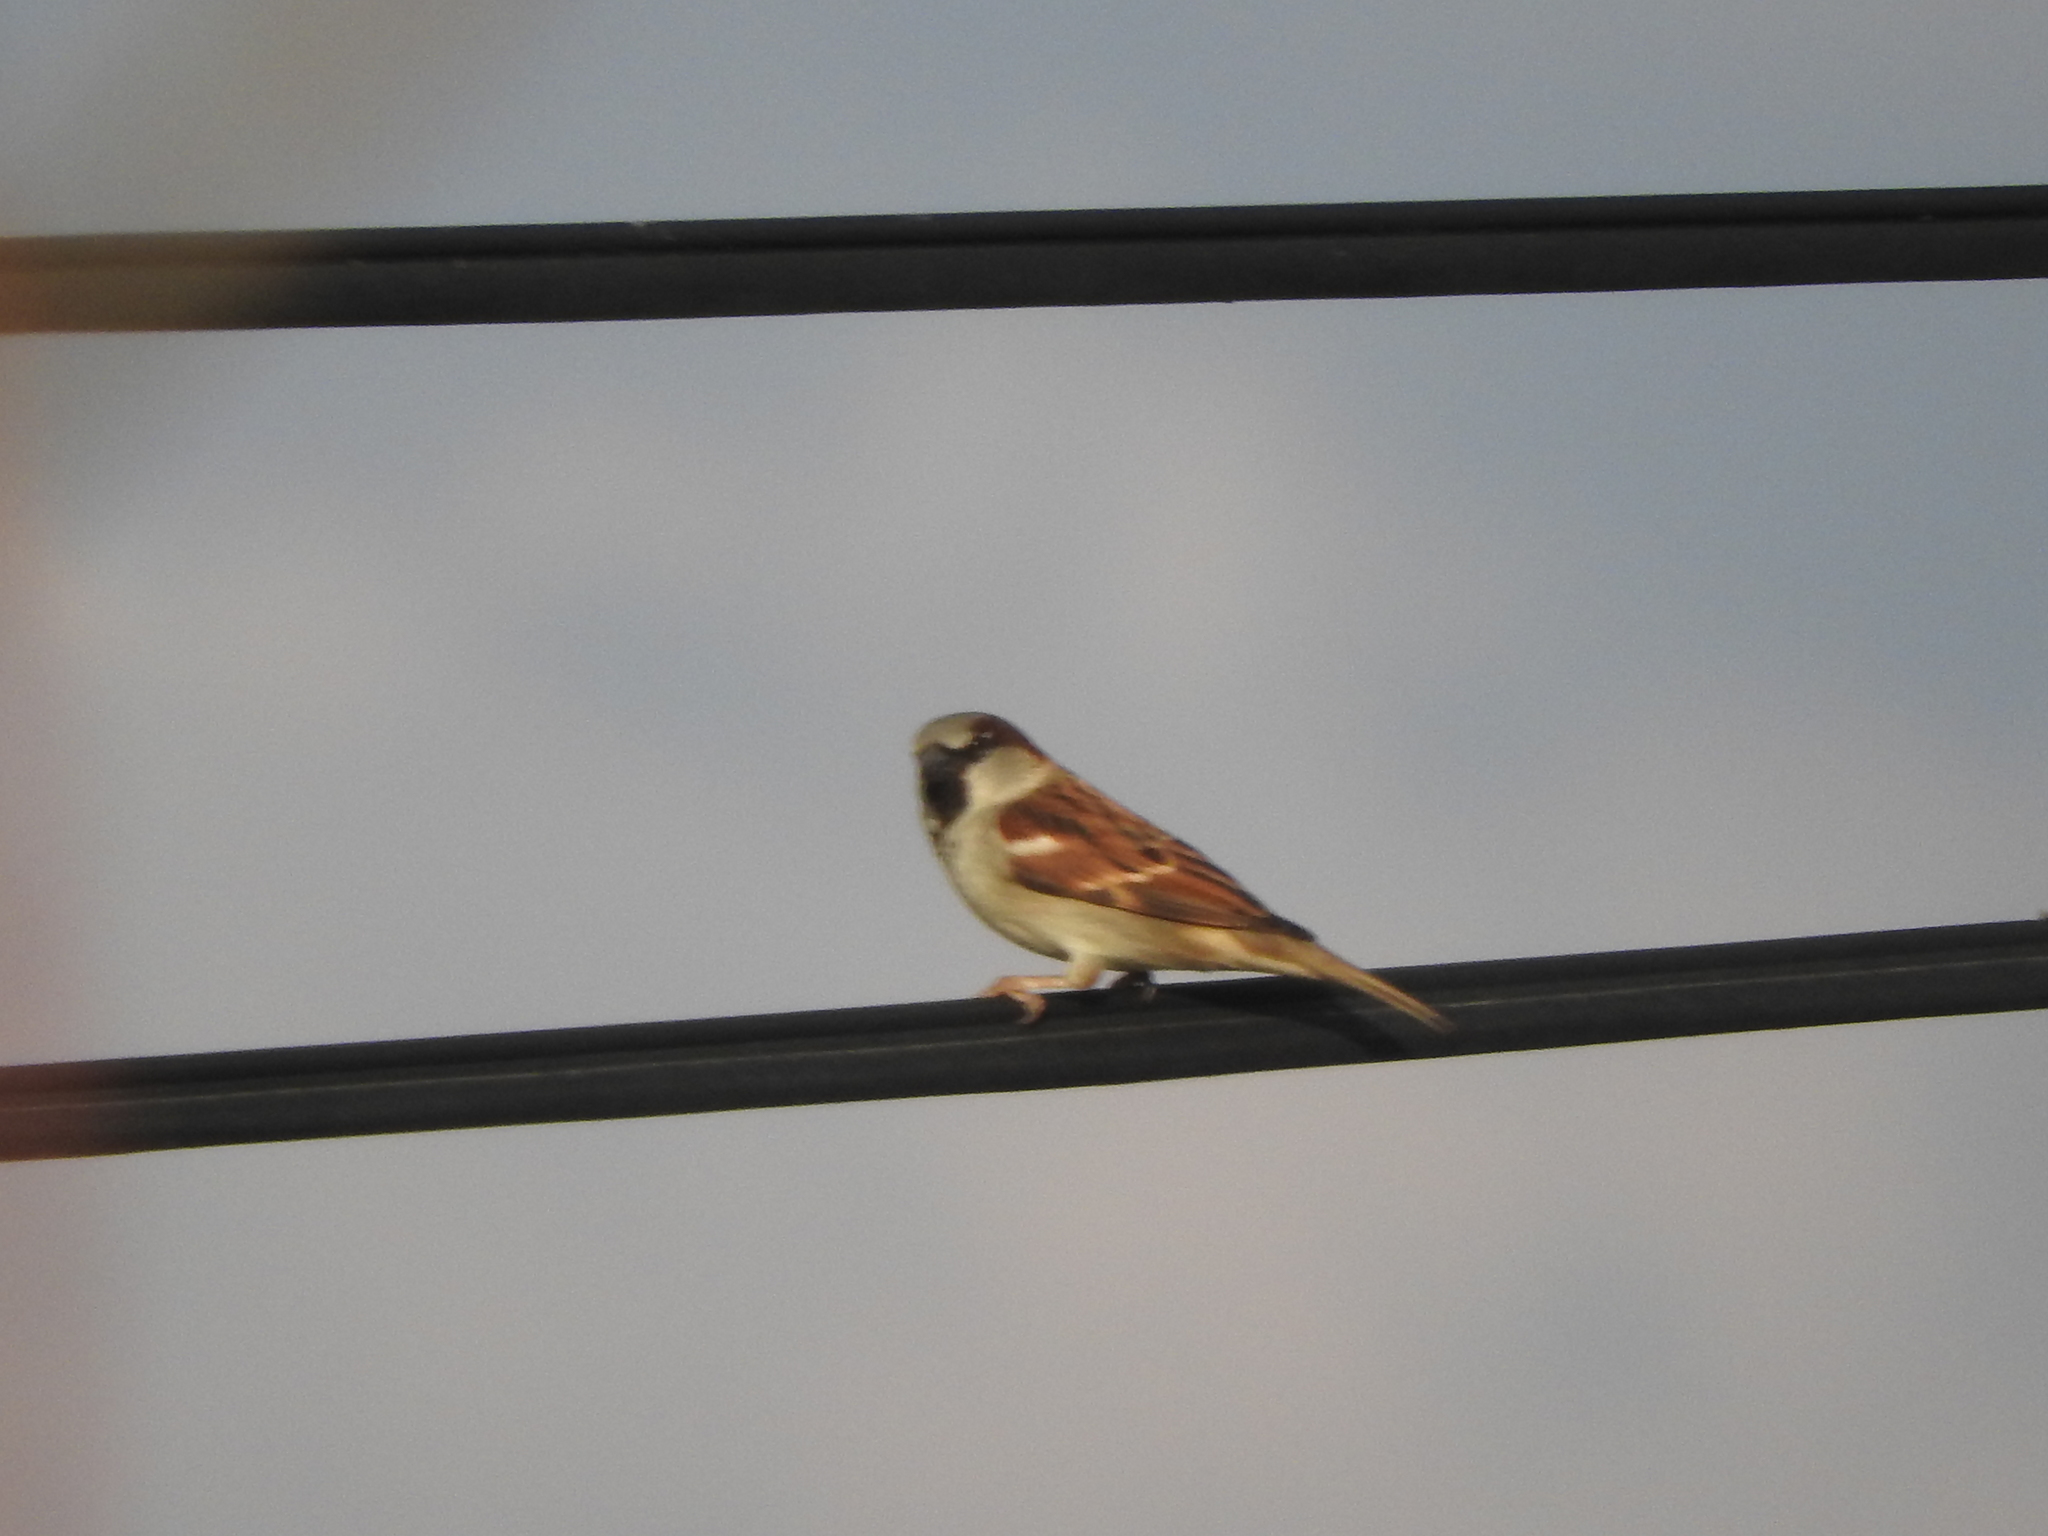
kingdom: Animalia
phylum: Chordata
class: Aves
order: Passeriformes
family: Passeridae
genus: Passer
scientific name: Passer domesticus
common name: House sparrow
